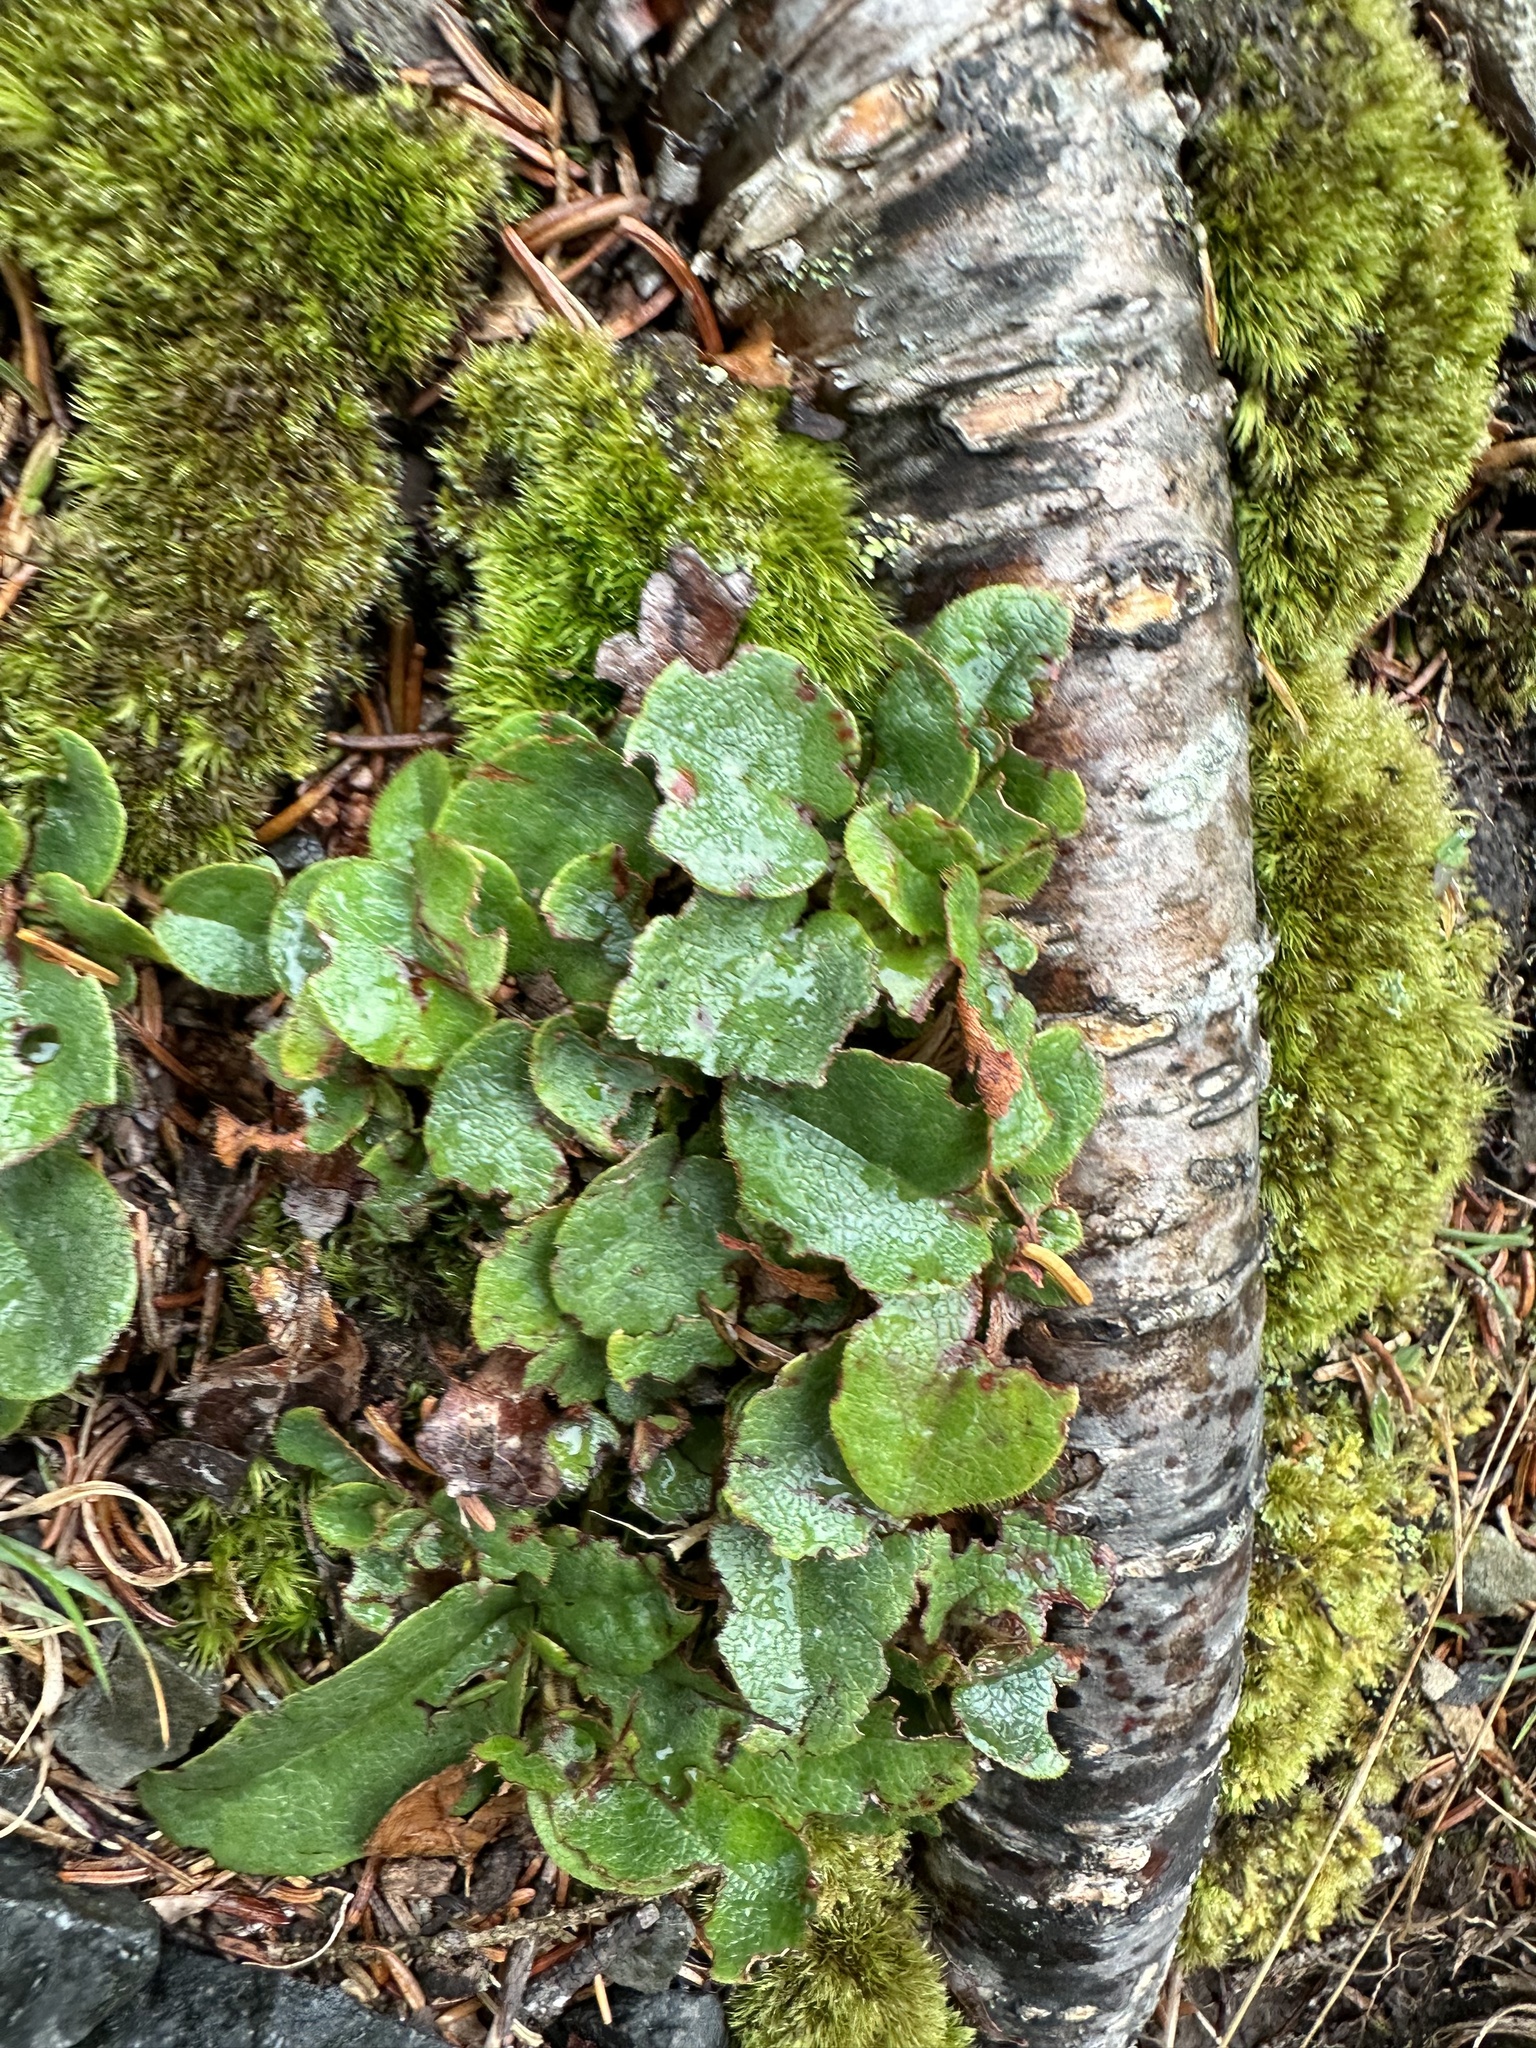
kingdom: Plantae
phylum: Tracheophyta
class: Magnoliopsida
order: Ericales
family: Ericaceae
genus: Epigaea
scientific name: Epigaea repens
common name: Gravelroot
